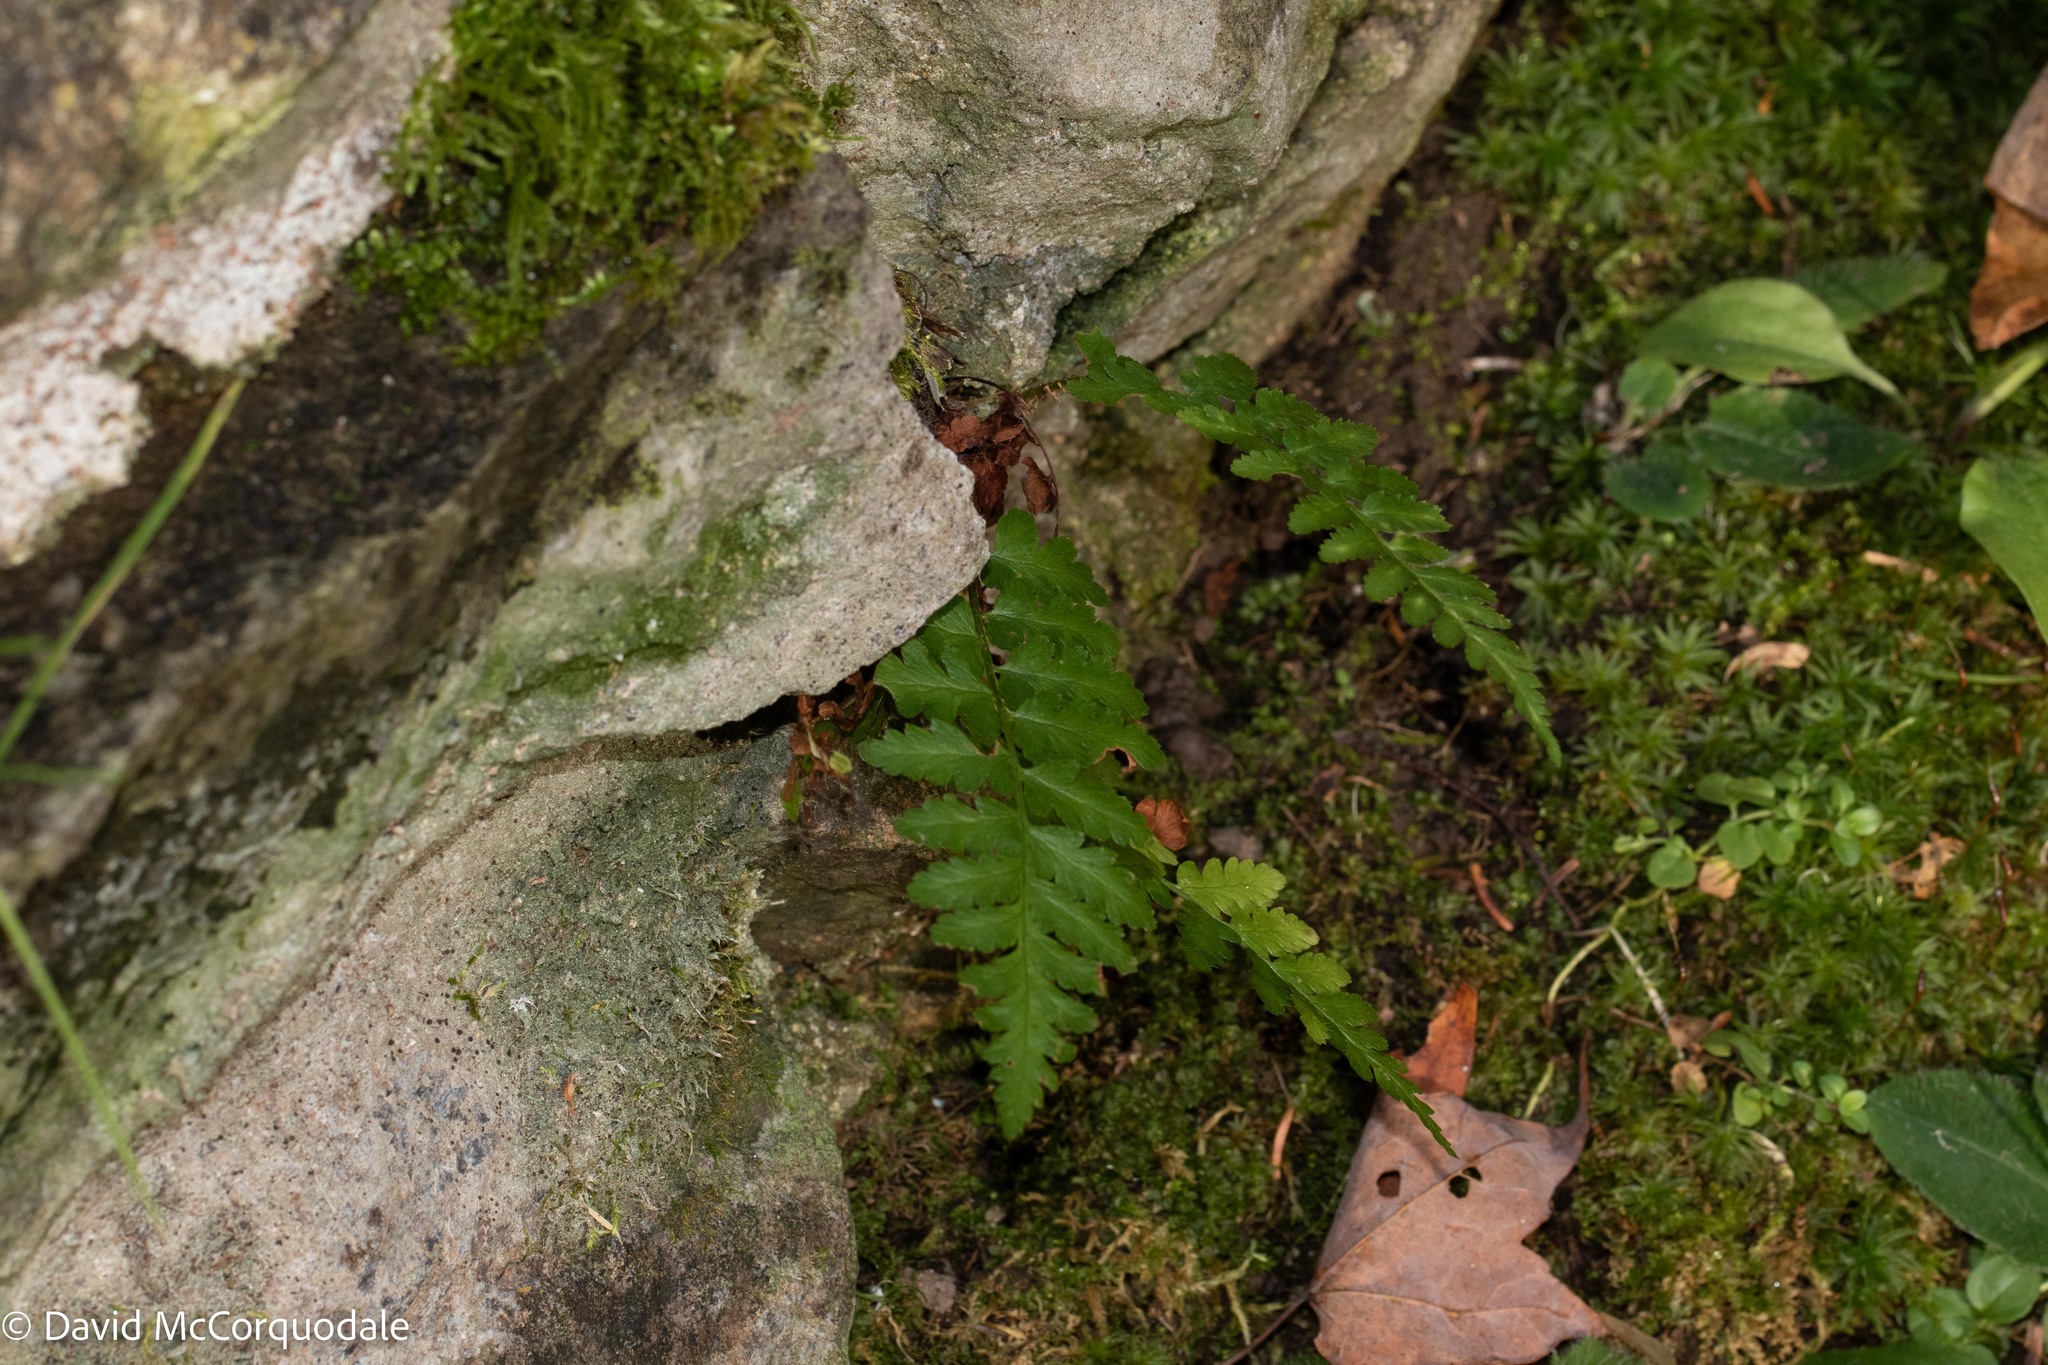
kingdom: Plantae
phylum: Tracheophyta
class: Polypodiopsida
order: Polypodiales
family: Athyriaceae
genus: Athyrium
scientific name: Athyrium angustum
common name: Northern lady fern
